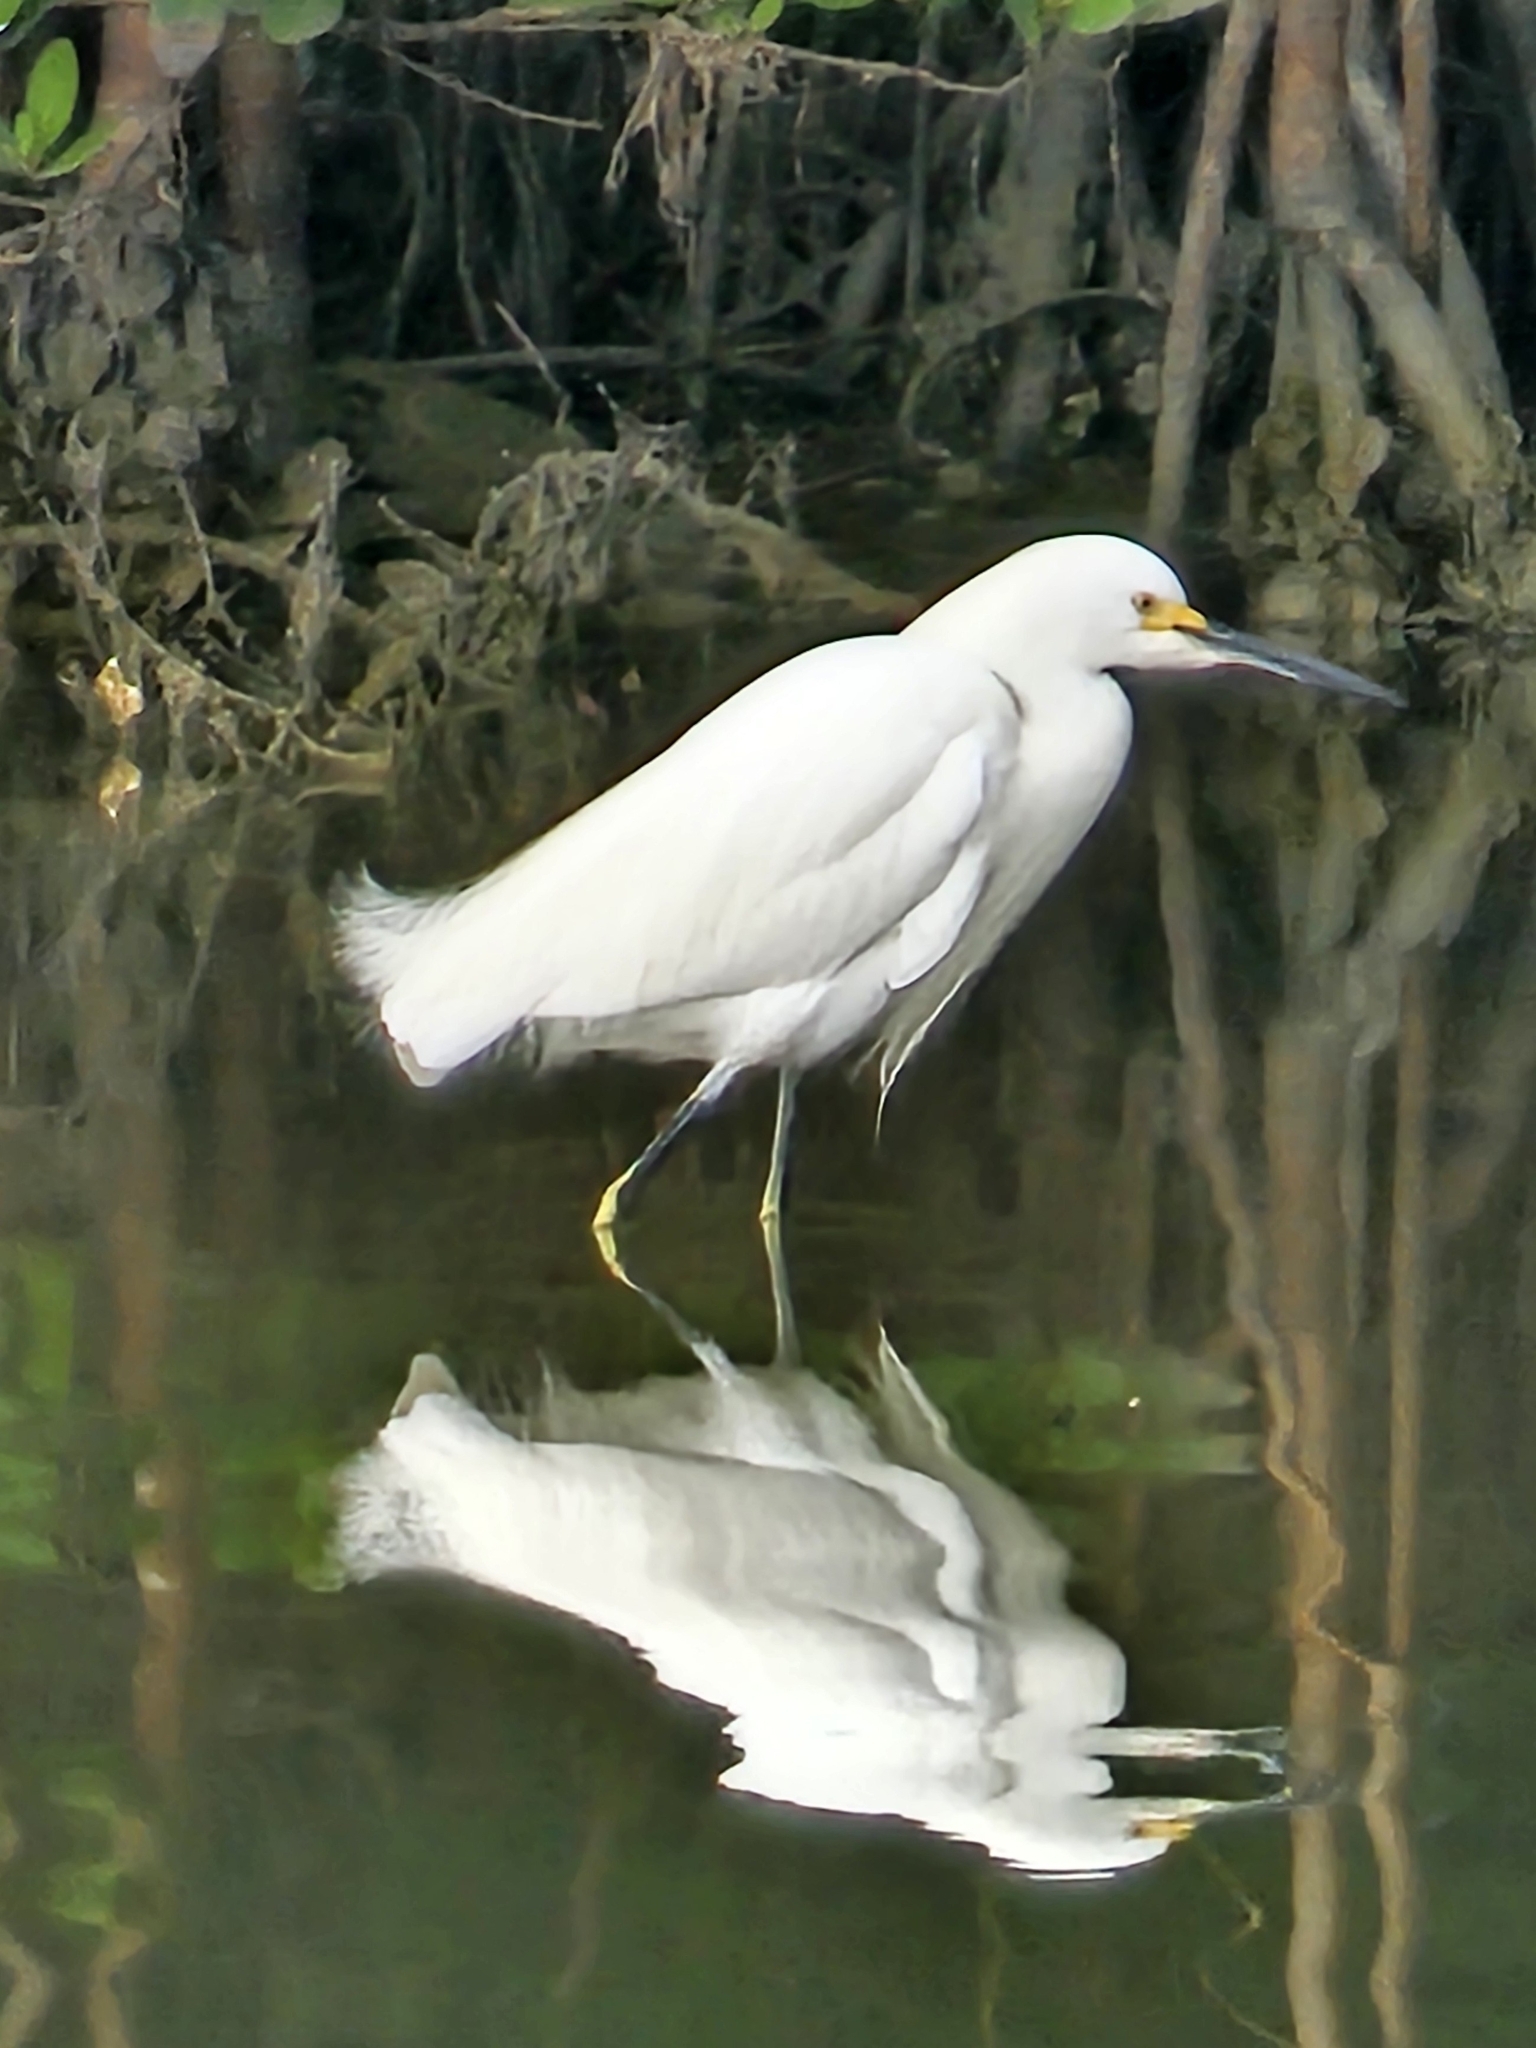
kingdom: Animalia
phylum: Chordata
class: Aves
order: Pelecaniformes
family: Ardeidae
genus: Egretta
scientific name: Egretta thula
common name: Snowy egret
